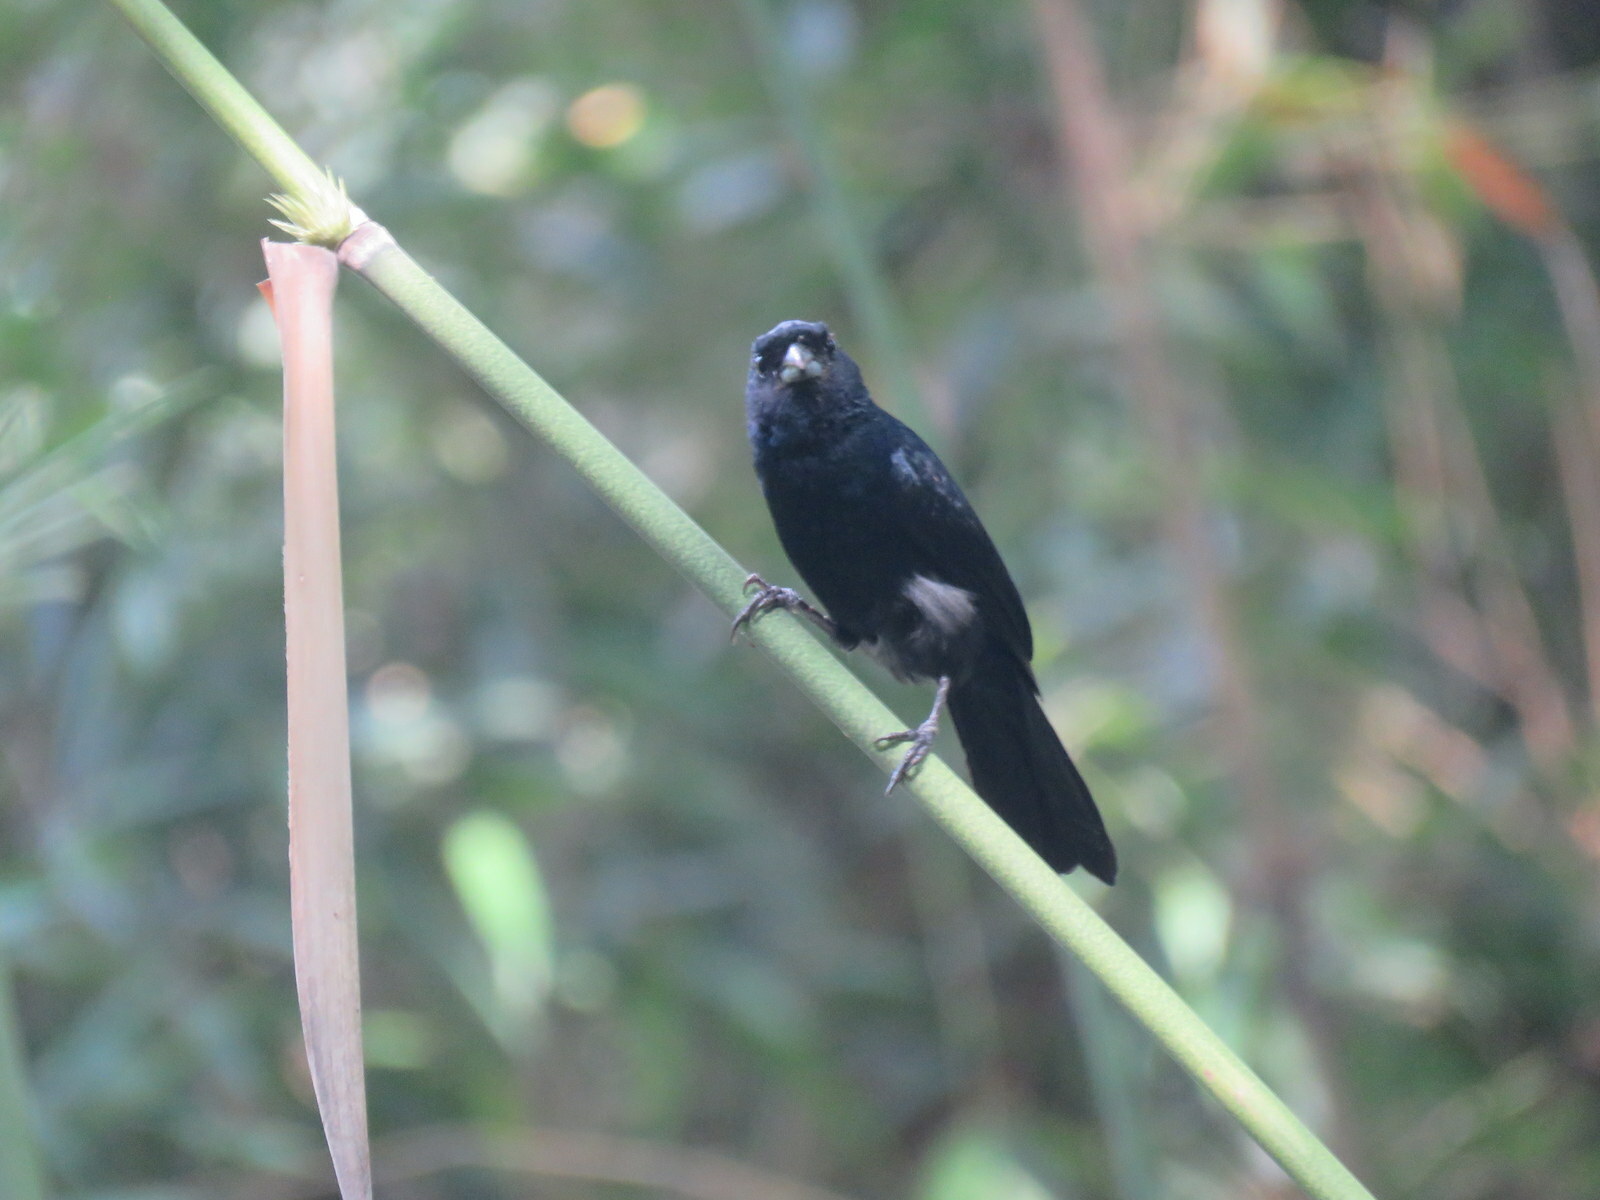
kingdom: Animalia
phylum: Chordata
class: Aves
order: Passeriformes
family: Thraupidae
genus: Tachyphonus
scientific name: Tachyphonus coronatus
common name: Ruby-crowned tanager
